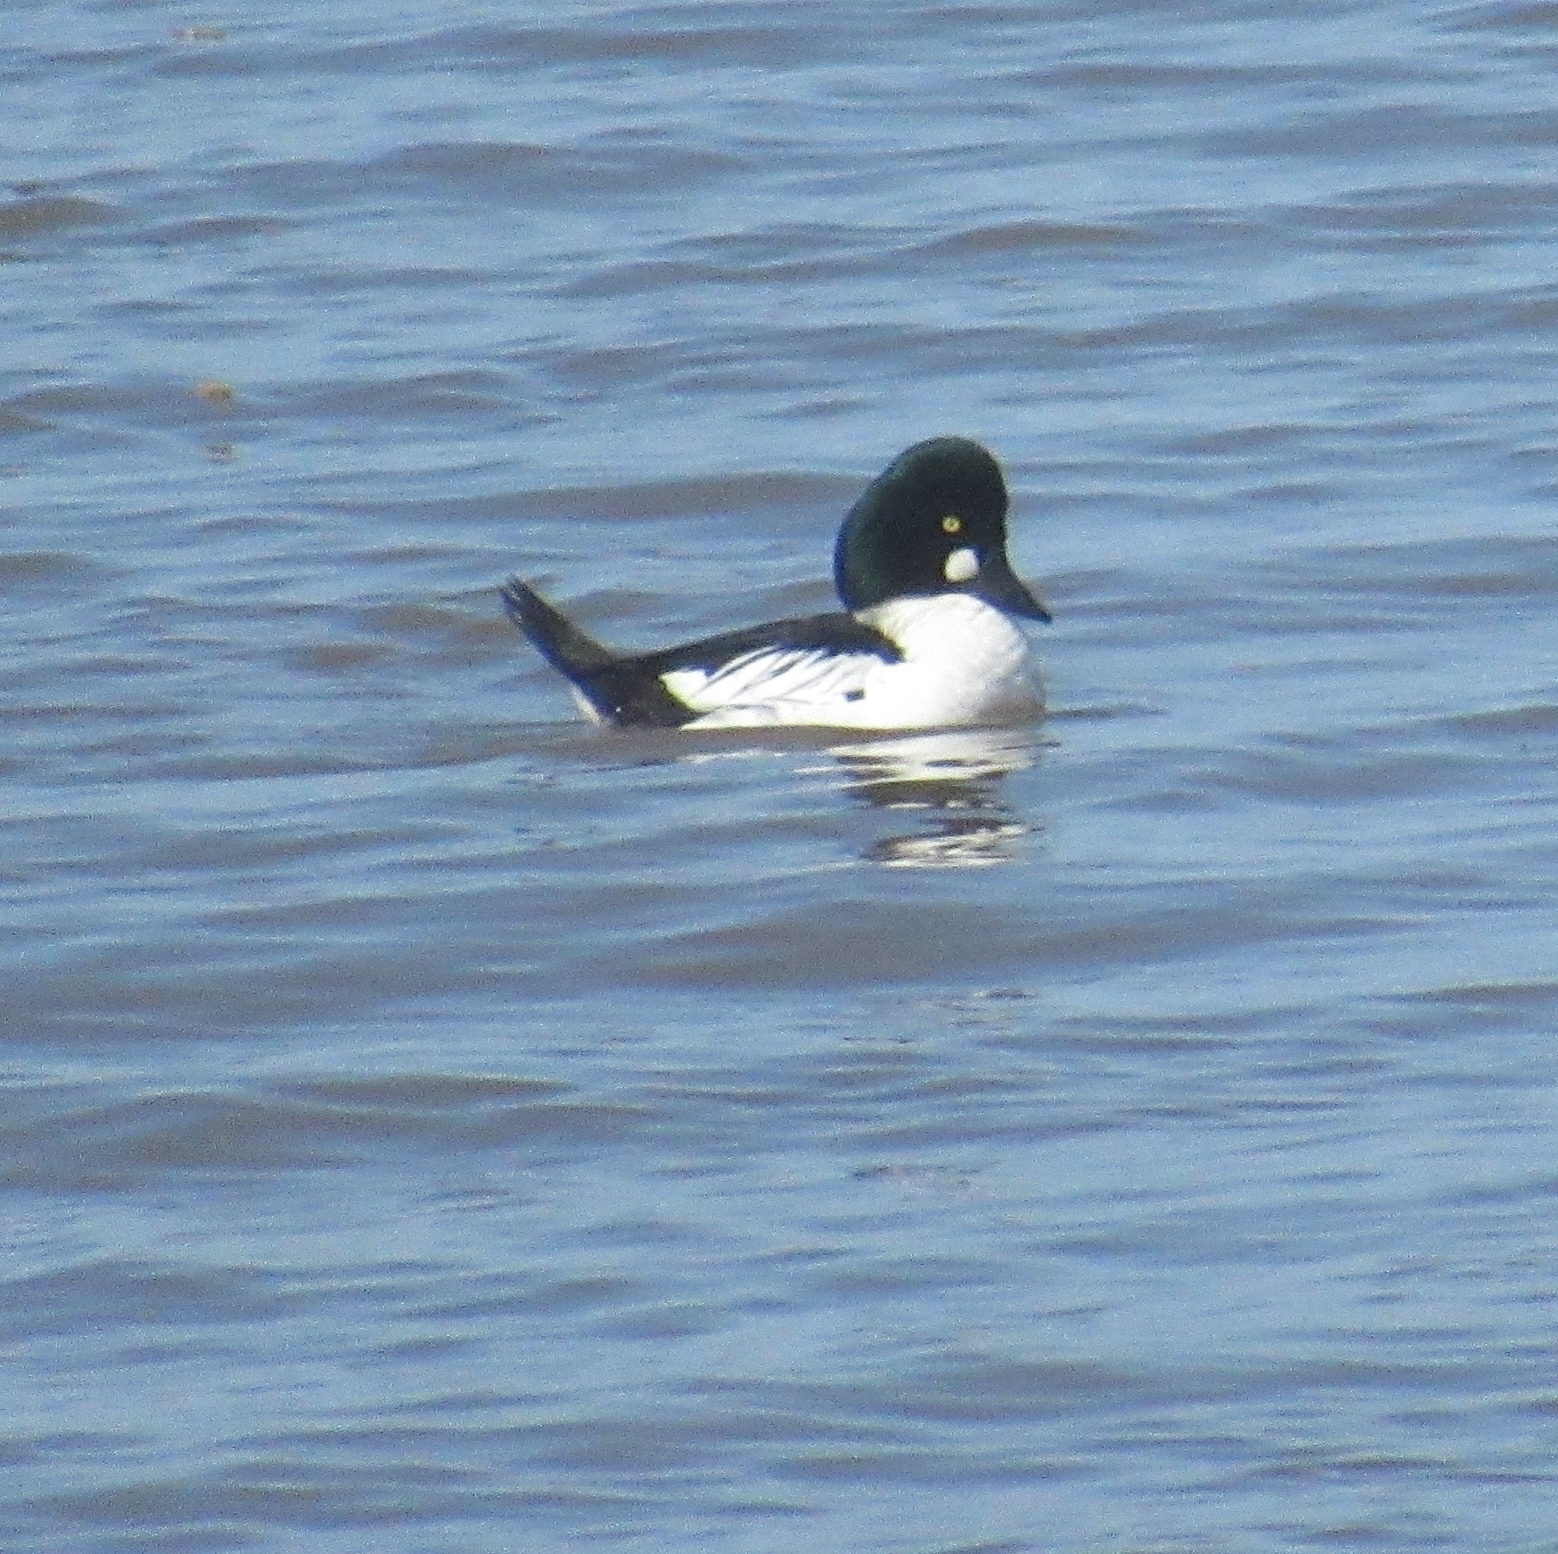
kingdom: Animalia
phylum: Chordata
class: Aves
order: Anseriformes
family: Anatidae
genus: Bucephala
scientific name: Bucephala clangula
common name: Common goldeneye
